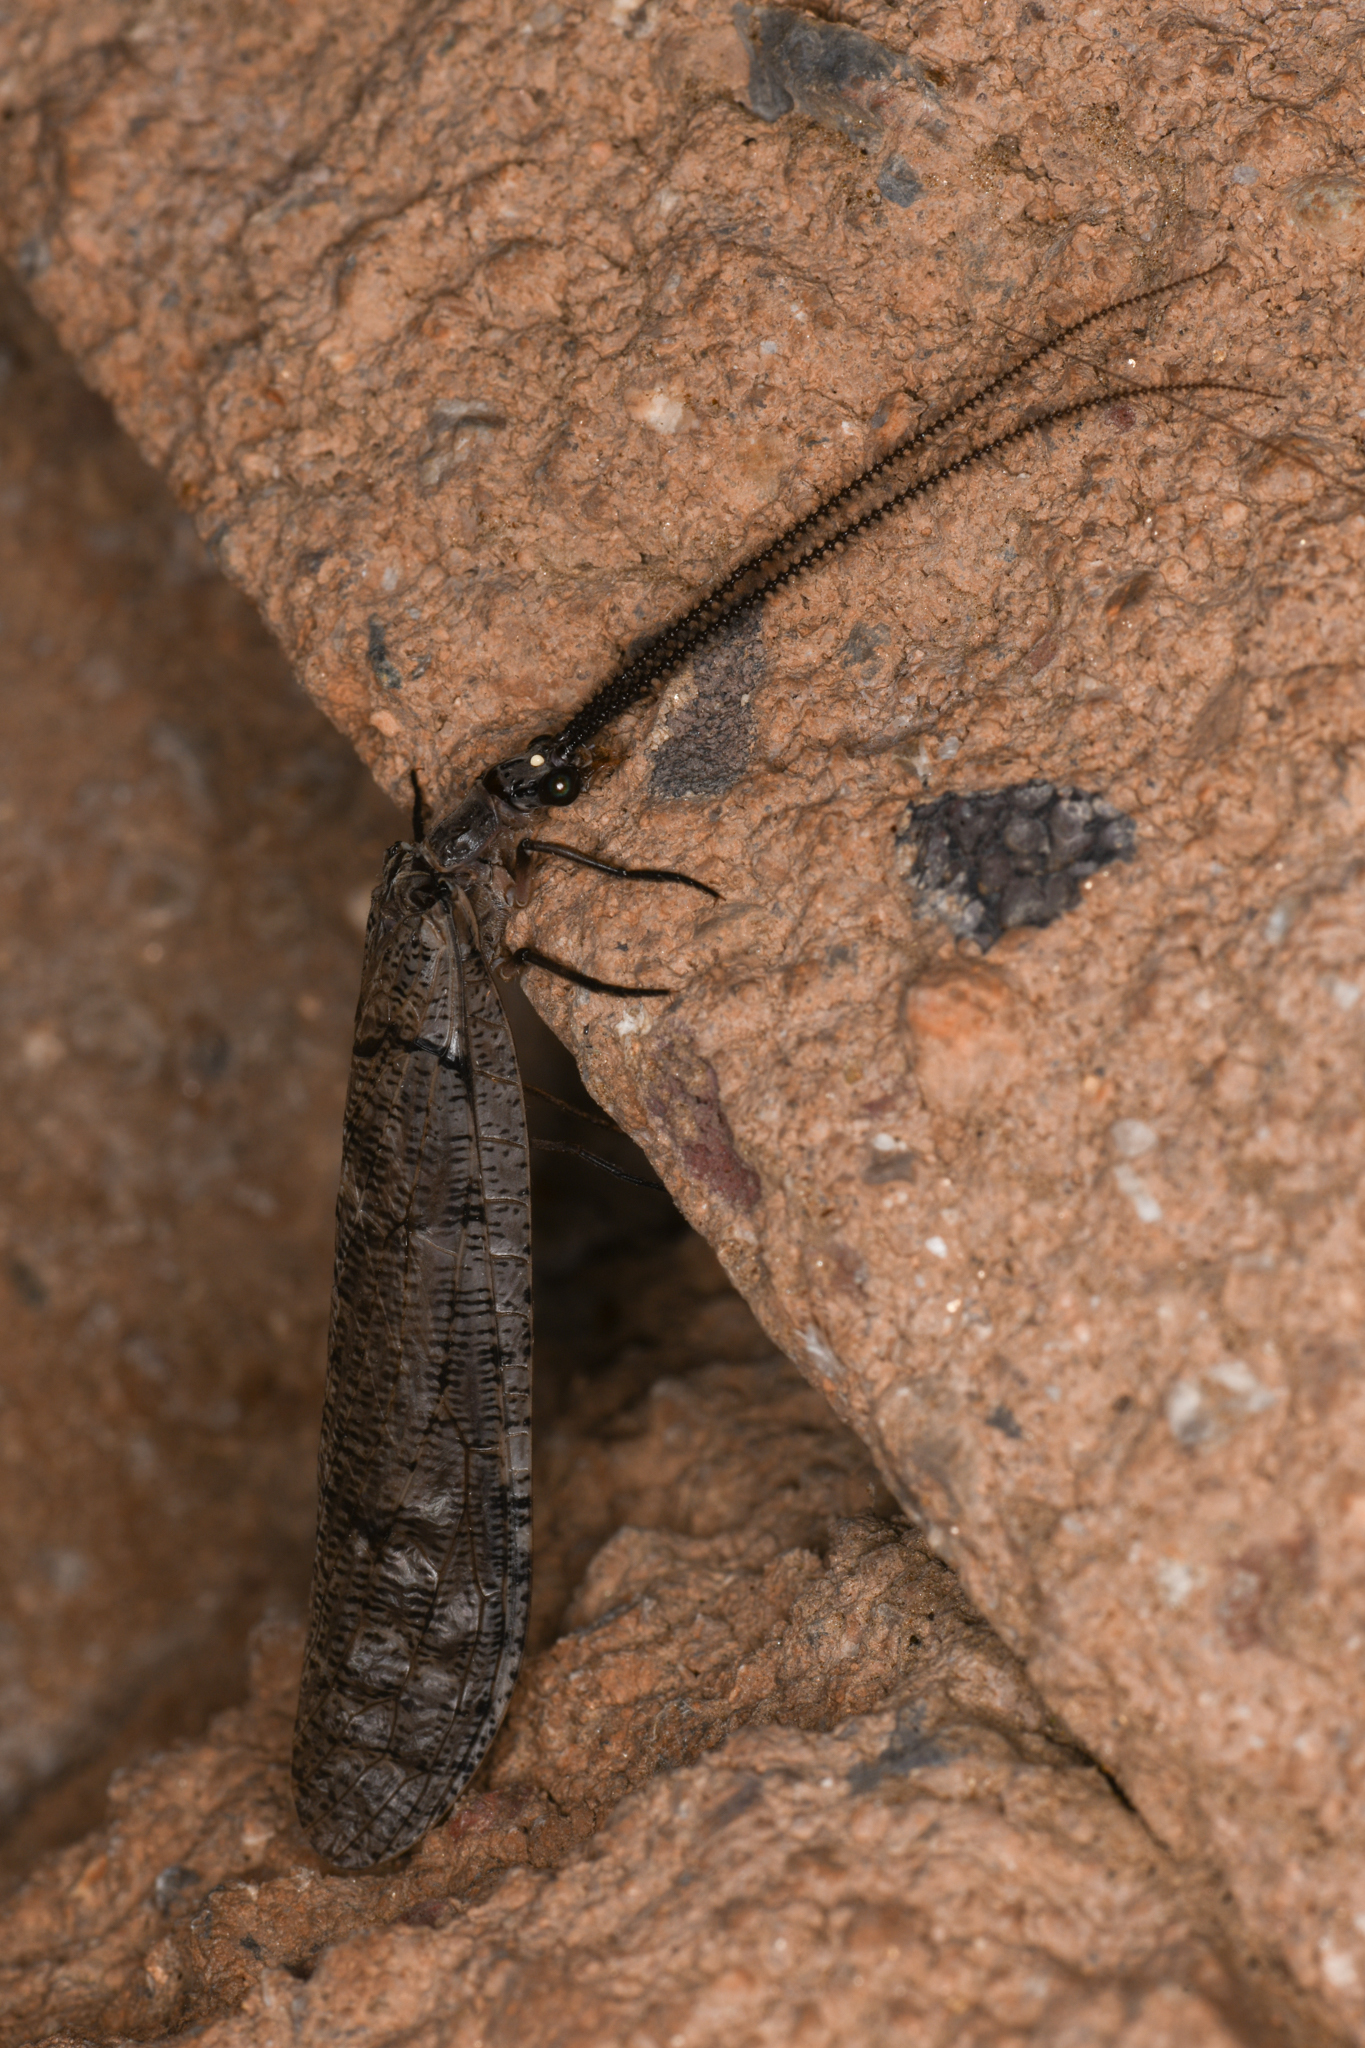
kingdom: Animalia
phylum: Arthropoda
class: Insecta
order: Megaloptera
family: Corydalidae
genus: Neohermes
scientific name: Neohermes californicus
